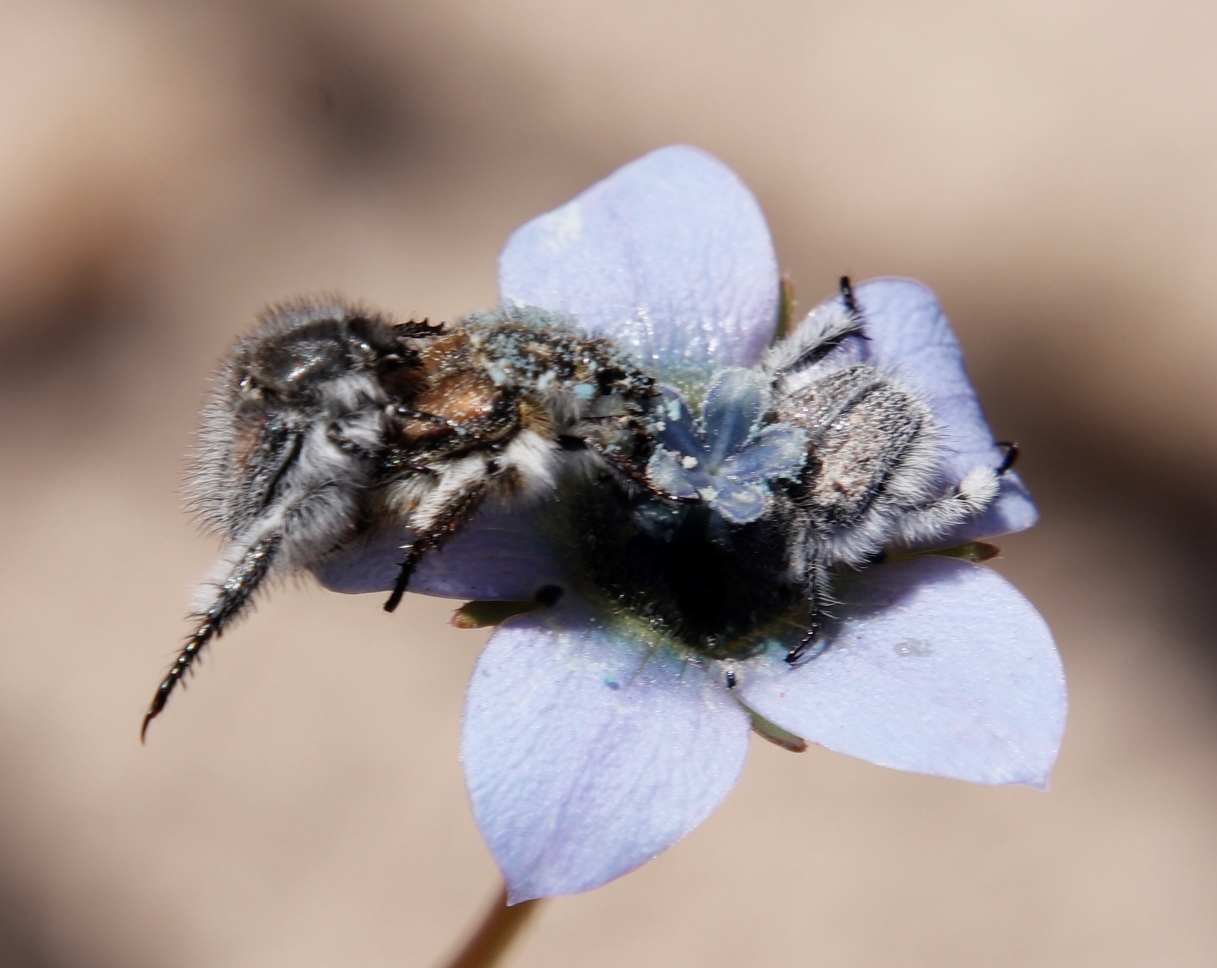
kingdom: Plantae
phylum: Tracheophyta
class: Magnoliopsida
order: Asterales
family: Campanulaceae
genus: Wahlenbergia
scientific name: Wahlenbergia capensis
